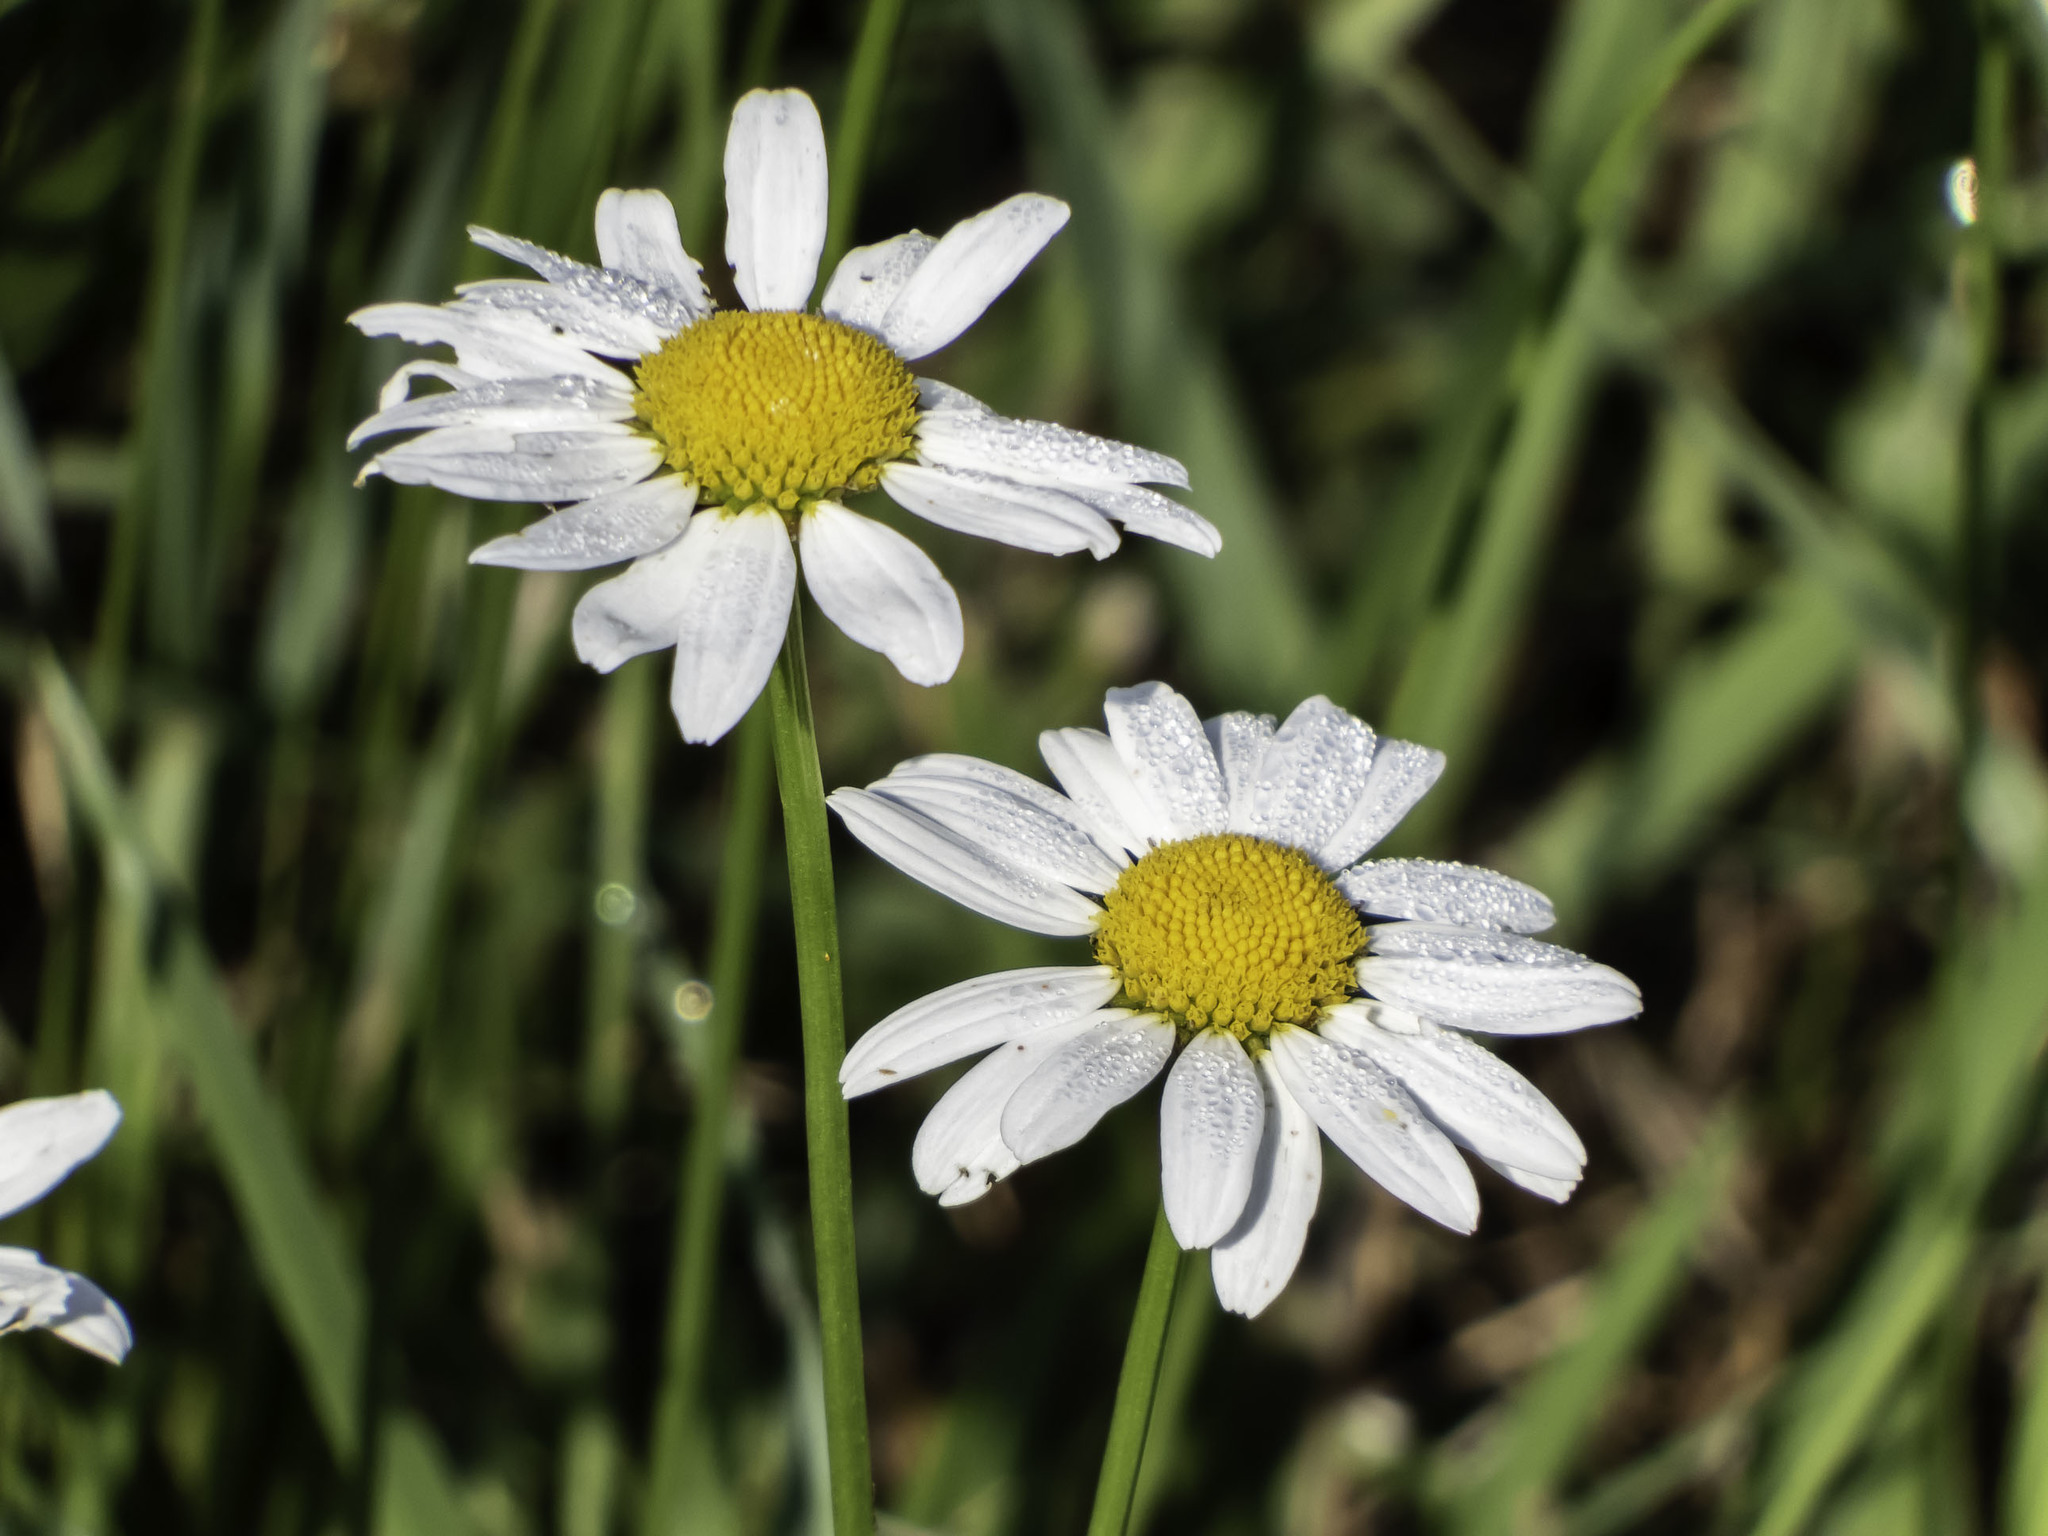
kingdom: Plantae
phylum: Tracheophyta
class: Magnoliopsida
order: Asterales
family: Asteraceae
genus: Leucanthemum
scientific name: Leucanthemum vulgare
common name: Oxeye daisy
